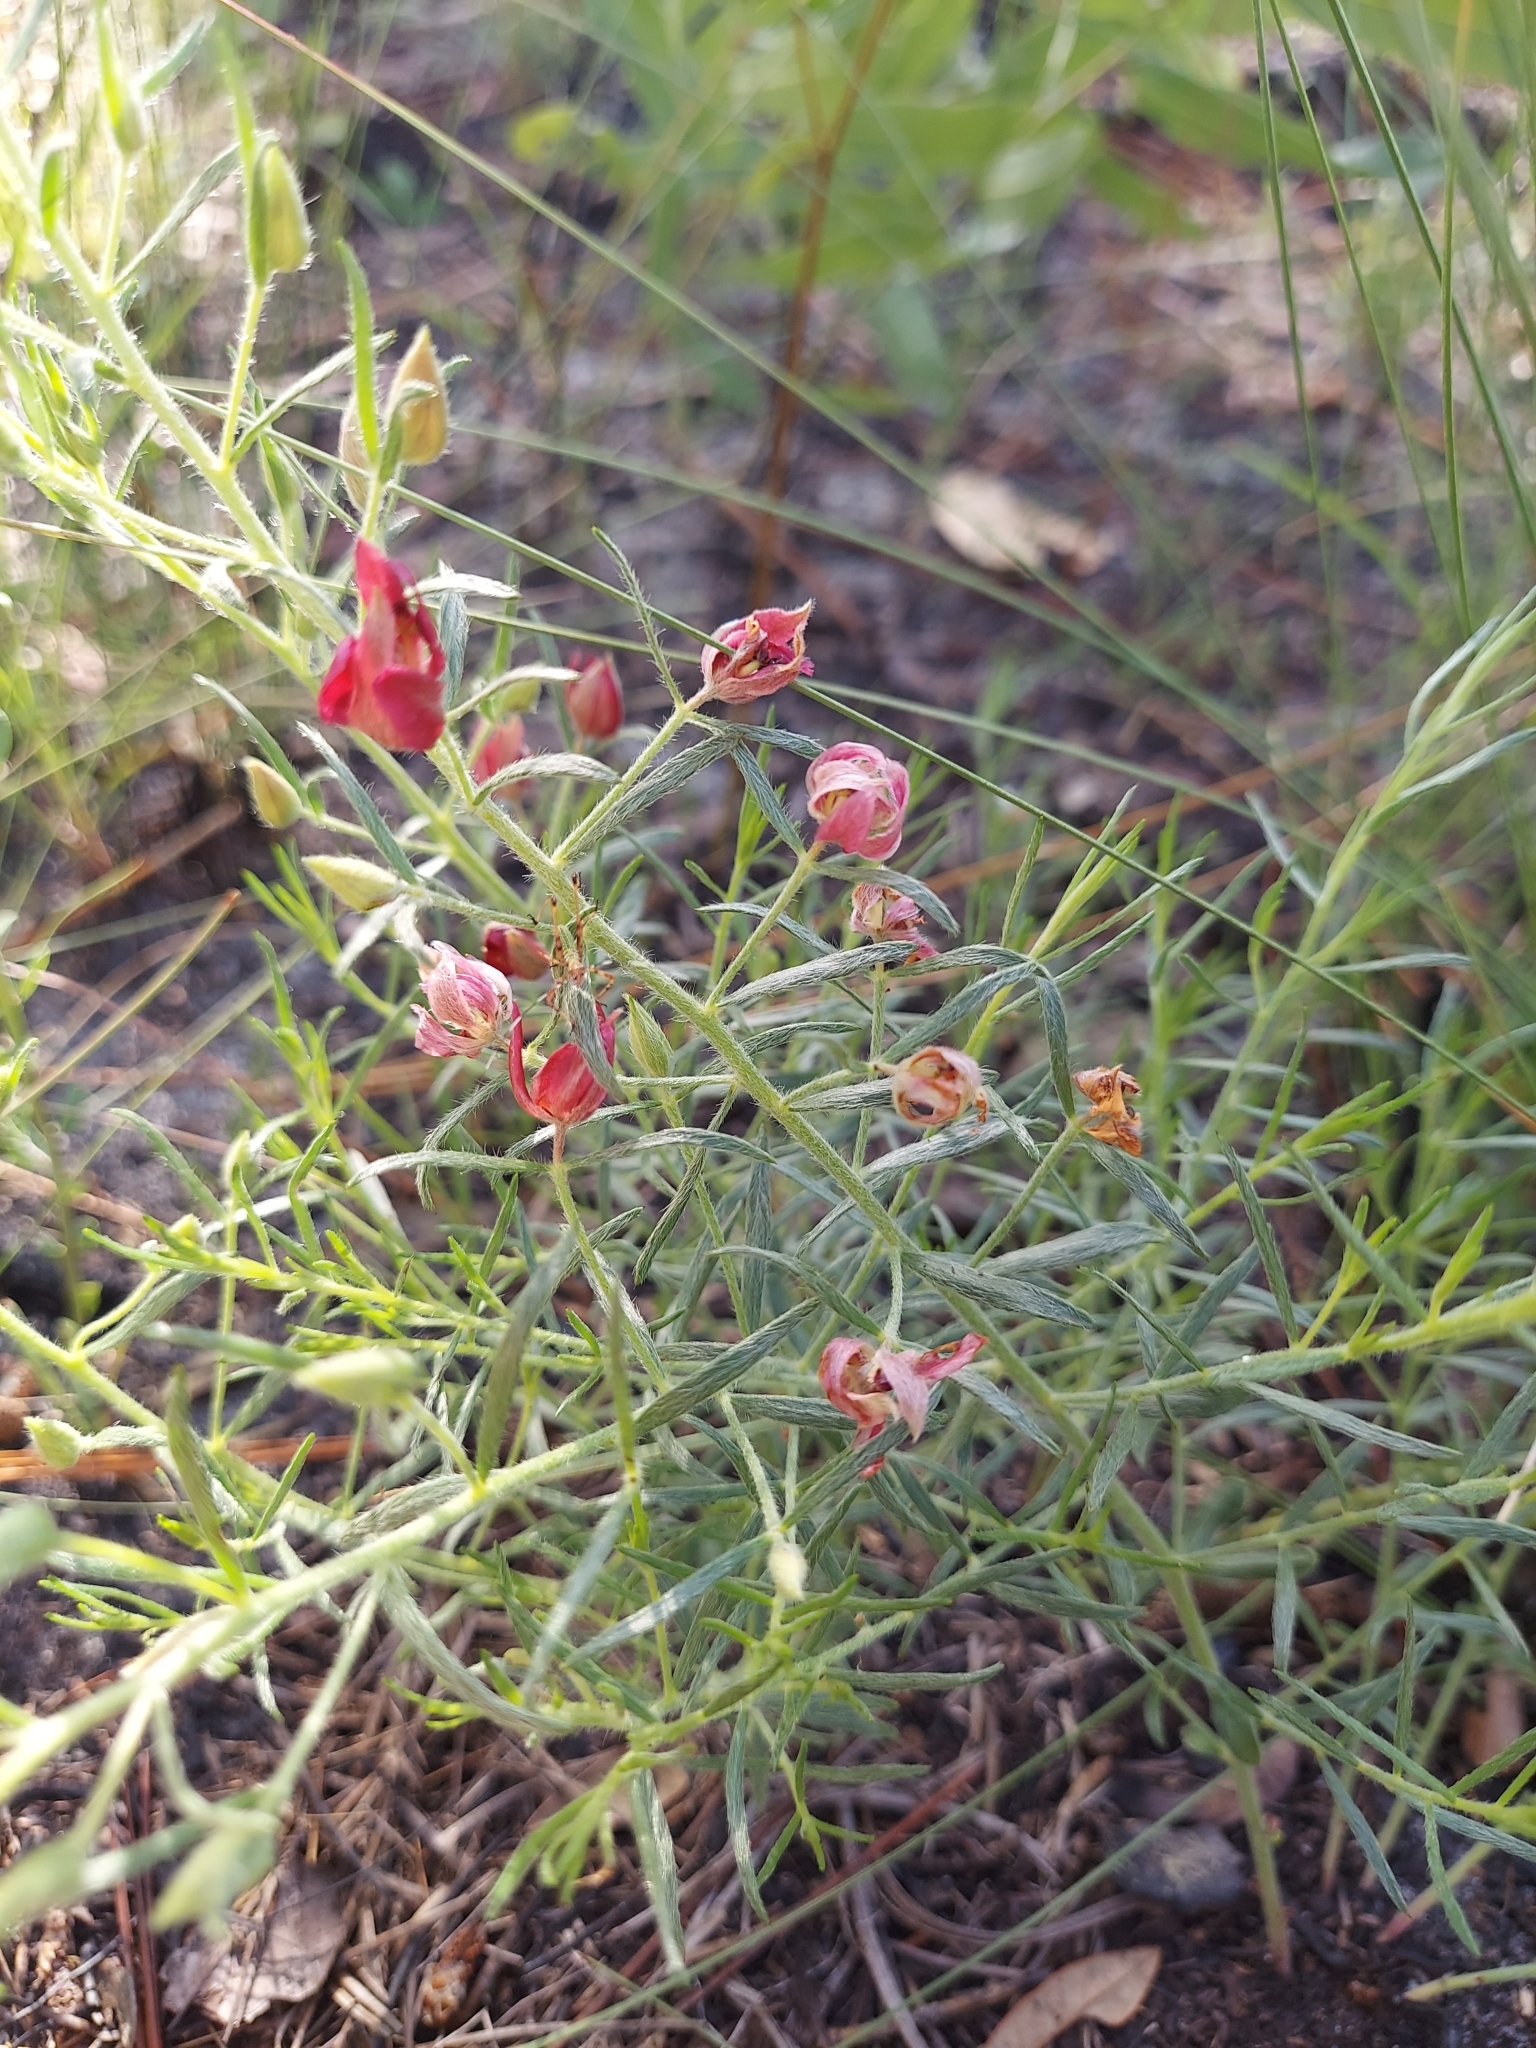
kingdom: Plantae
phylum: Tracheophyta
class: Magnoliopsida
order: Zygophyllales
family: Krameriaceae
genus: Krameria
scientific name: Krameria lanceolata
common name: Ratany
